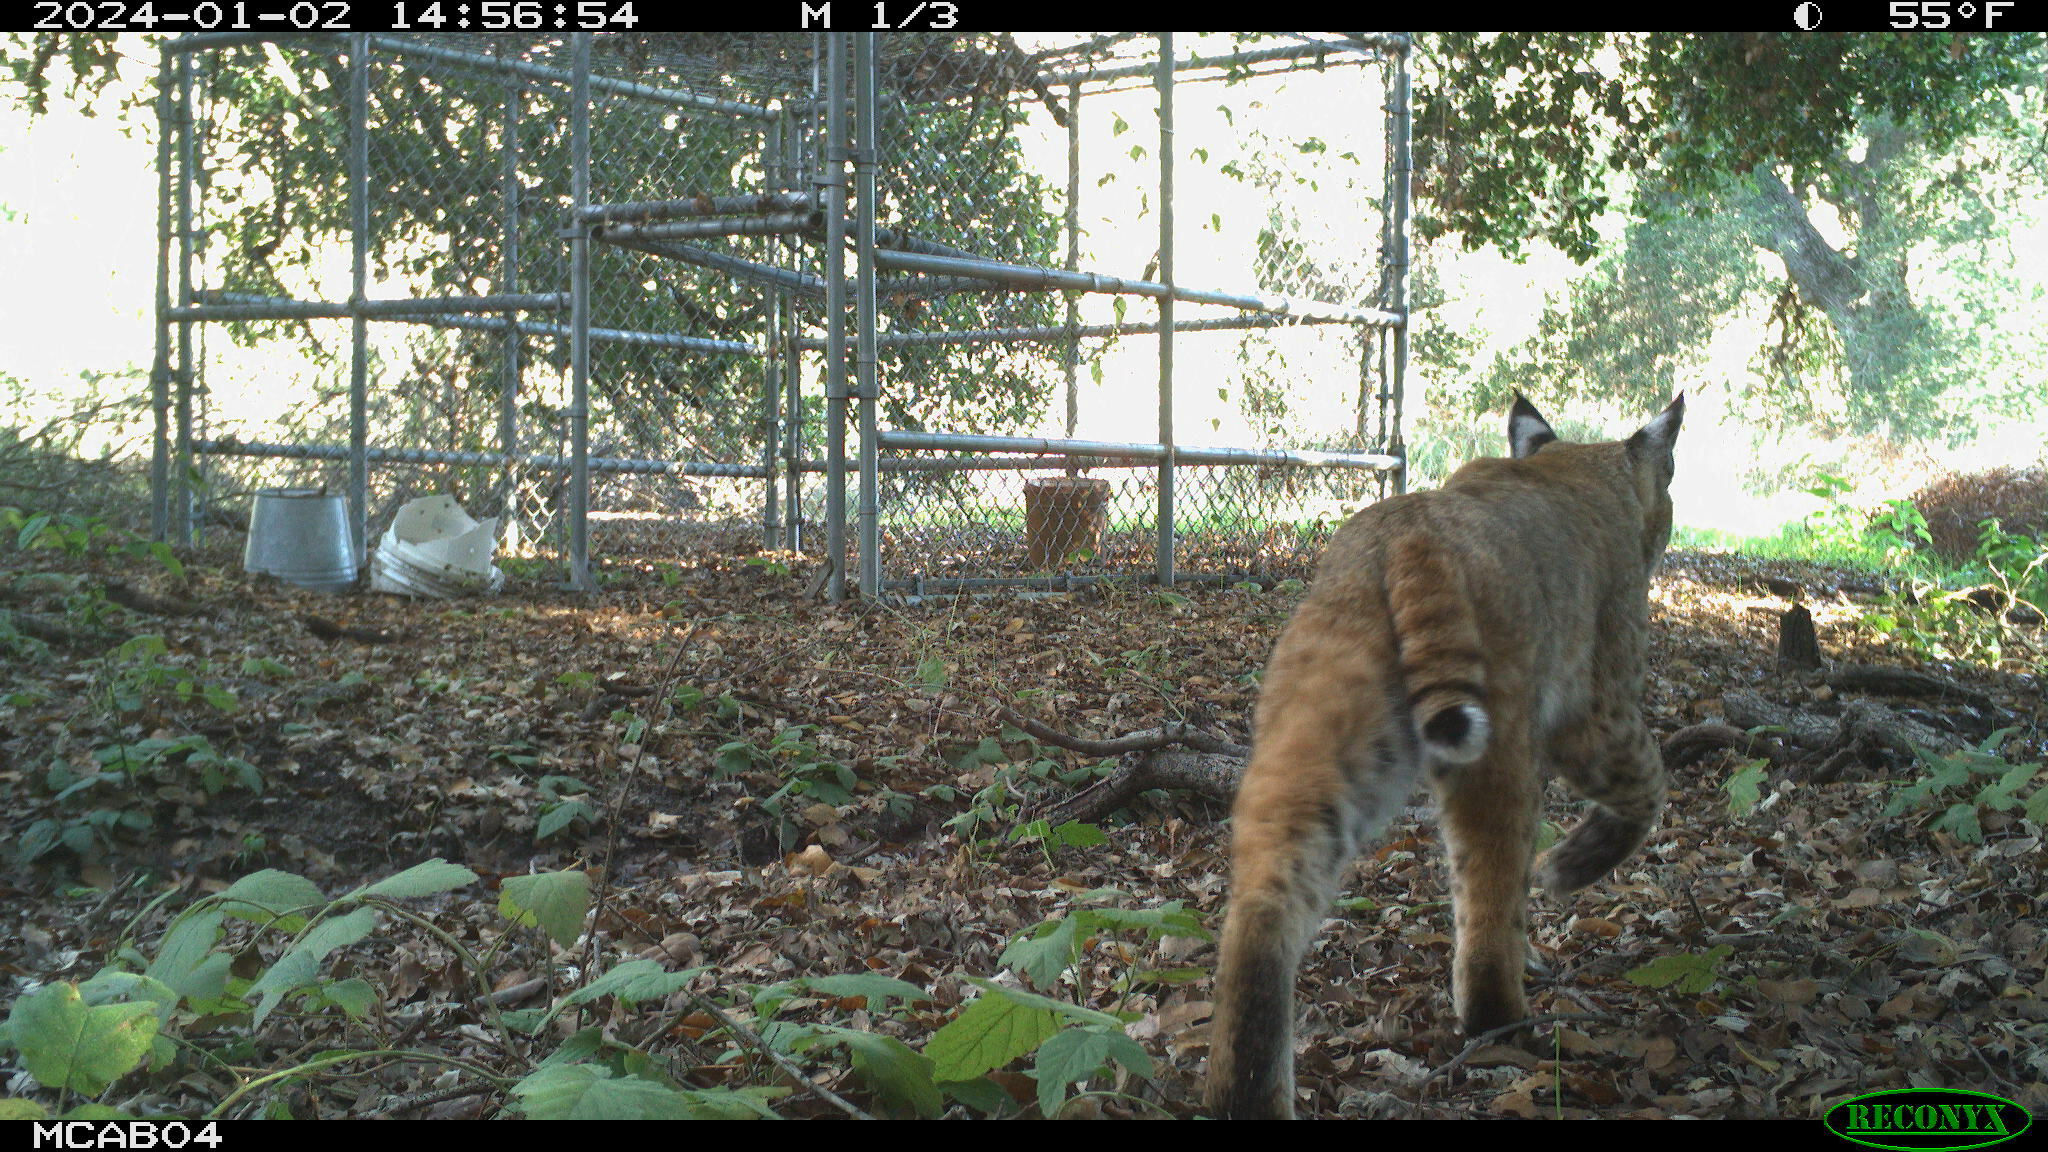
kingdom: Animalia
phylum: Chordata
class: Mammalia
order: Carnivora
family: Felidae
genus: Lynx
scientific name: Lynx rufus
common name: Bobcat
